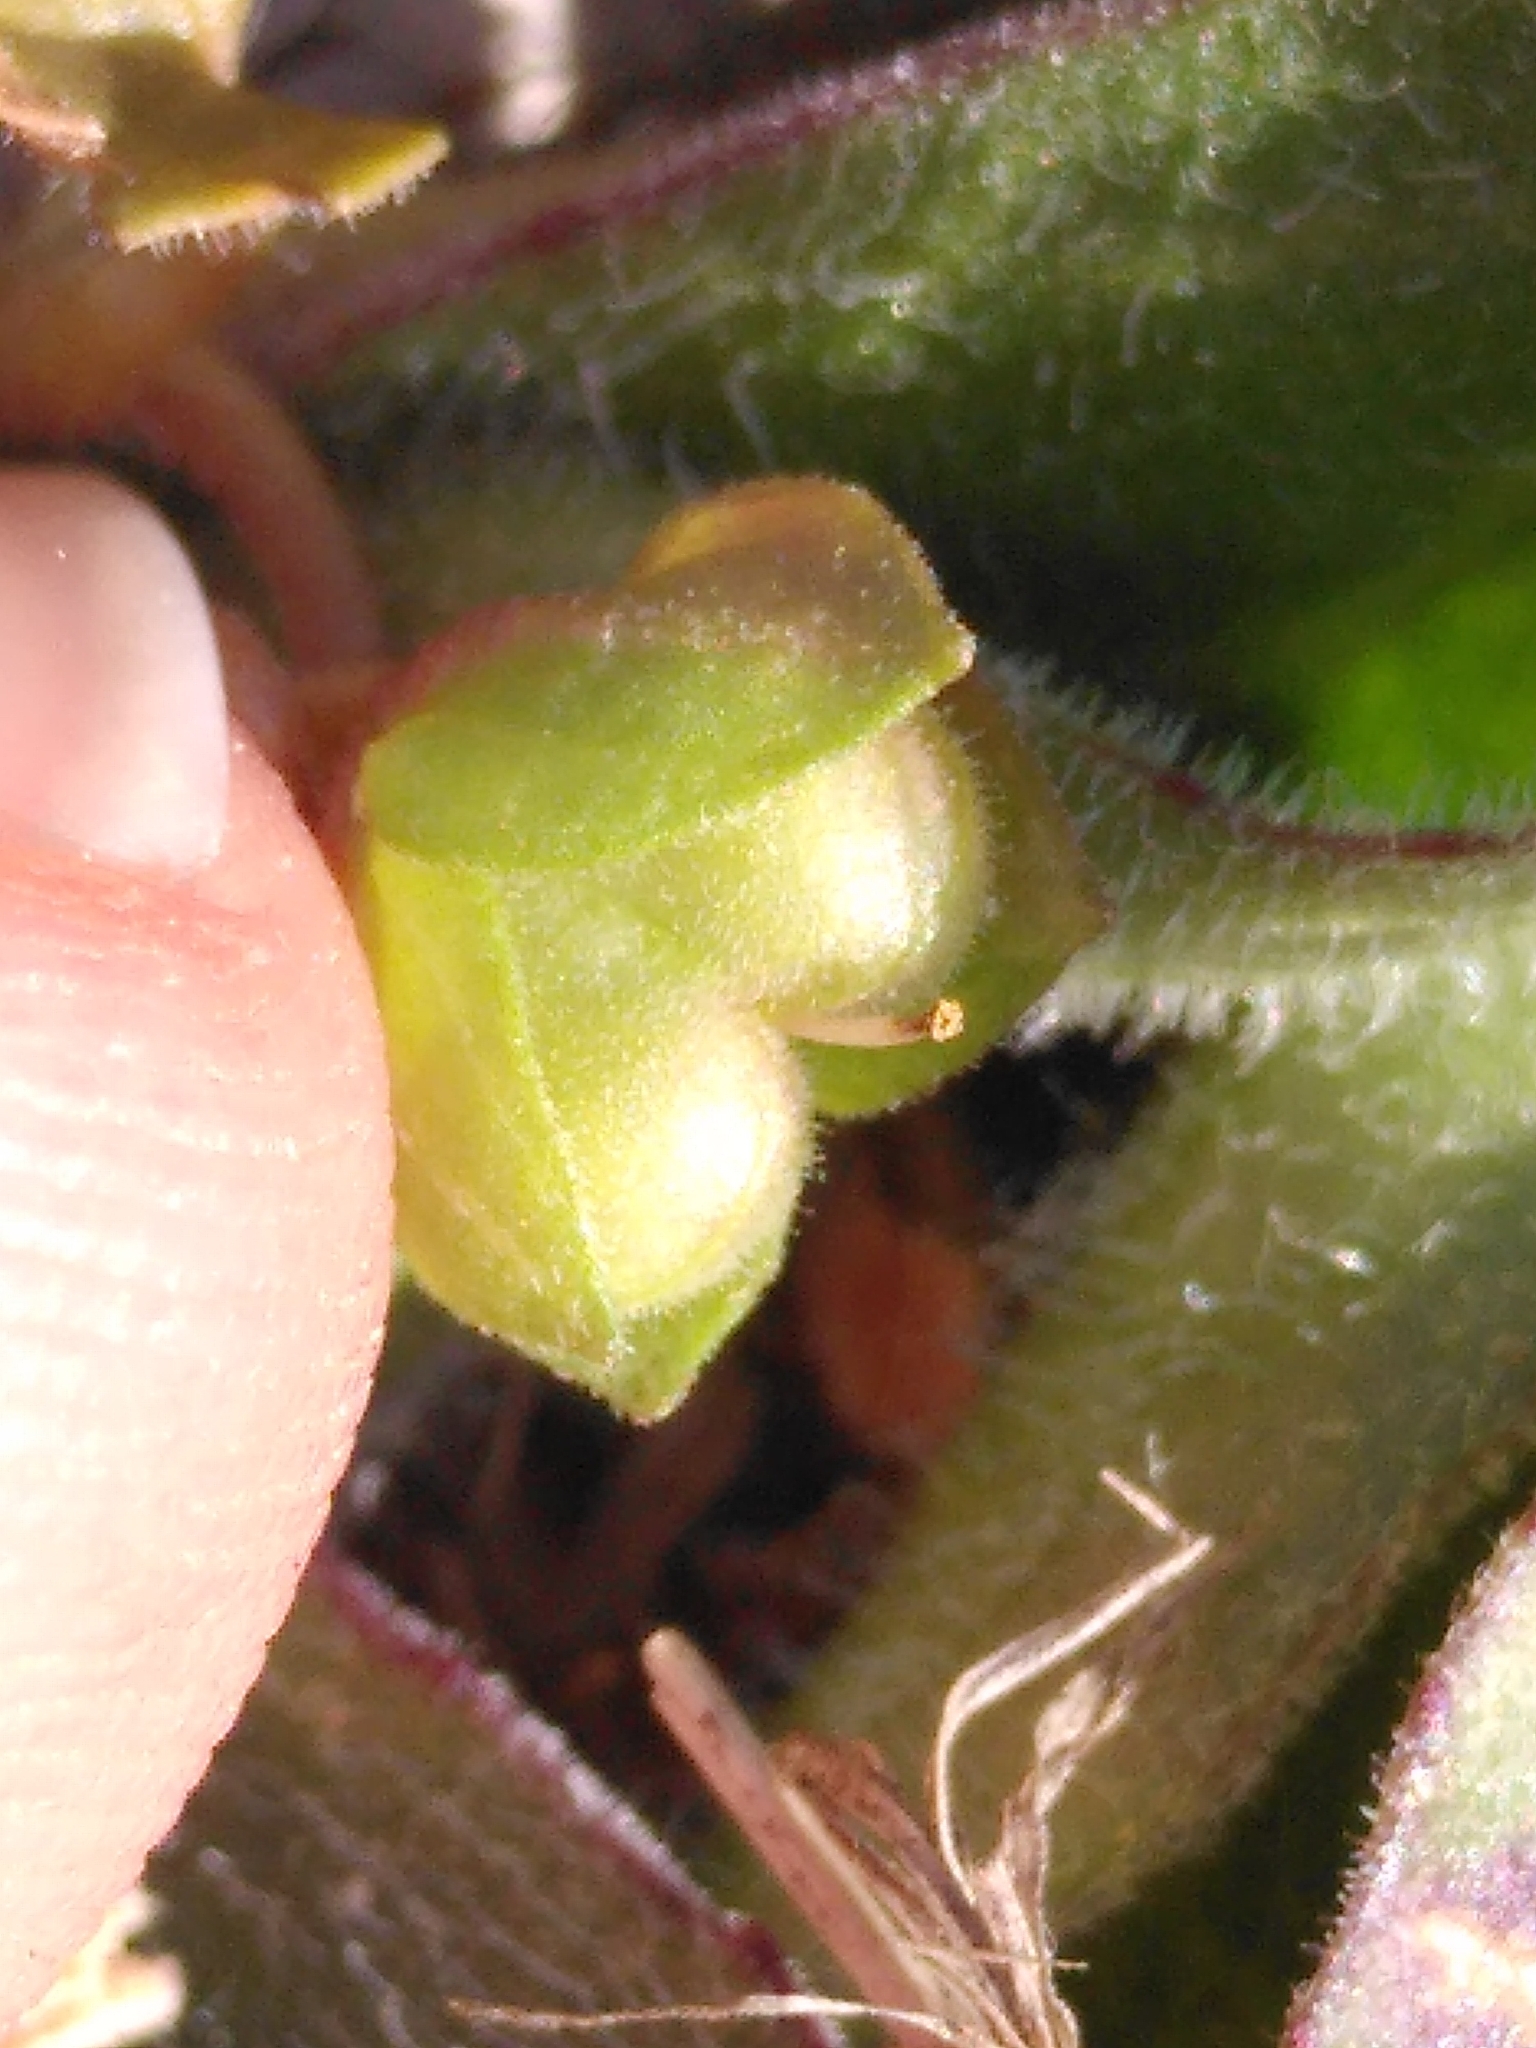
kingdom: Plantae
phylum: Tracheophyta
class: Magnoliopsida
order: Lamiales
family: Plantaginaceae
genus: Veronica
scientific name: Veronica polita
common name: Grey field-speedwell
